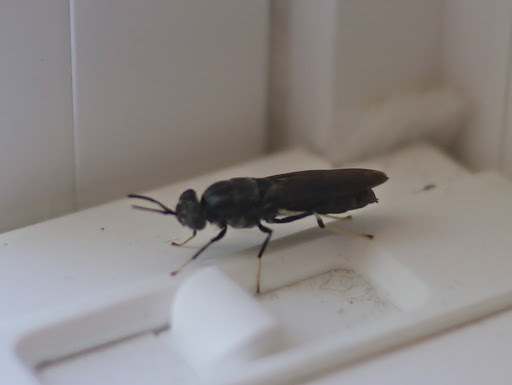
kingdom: Animalia
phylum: Arthropoda
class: Insecta
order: Diptera
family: Stratiomyidae
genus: Hermetia
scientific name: Hermetia illucens
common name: Black soldier fly
